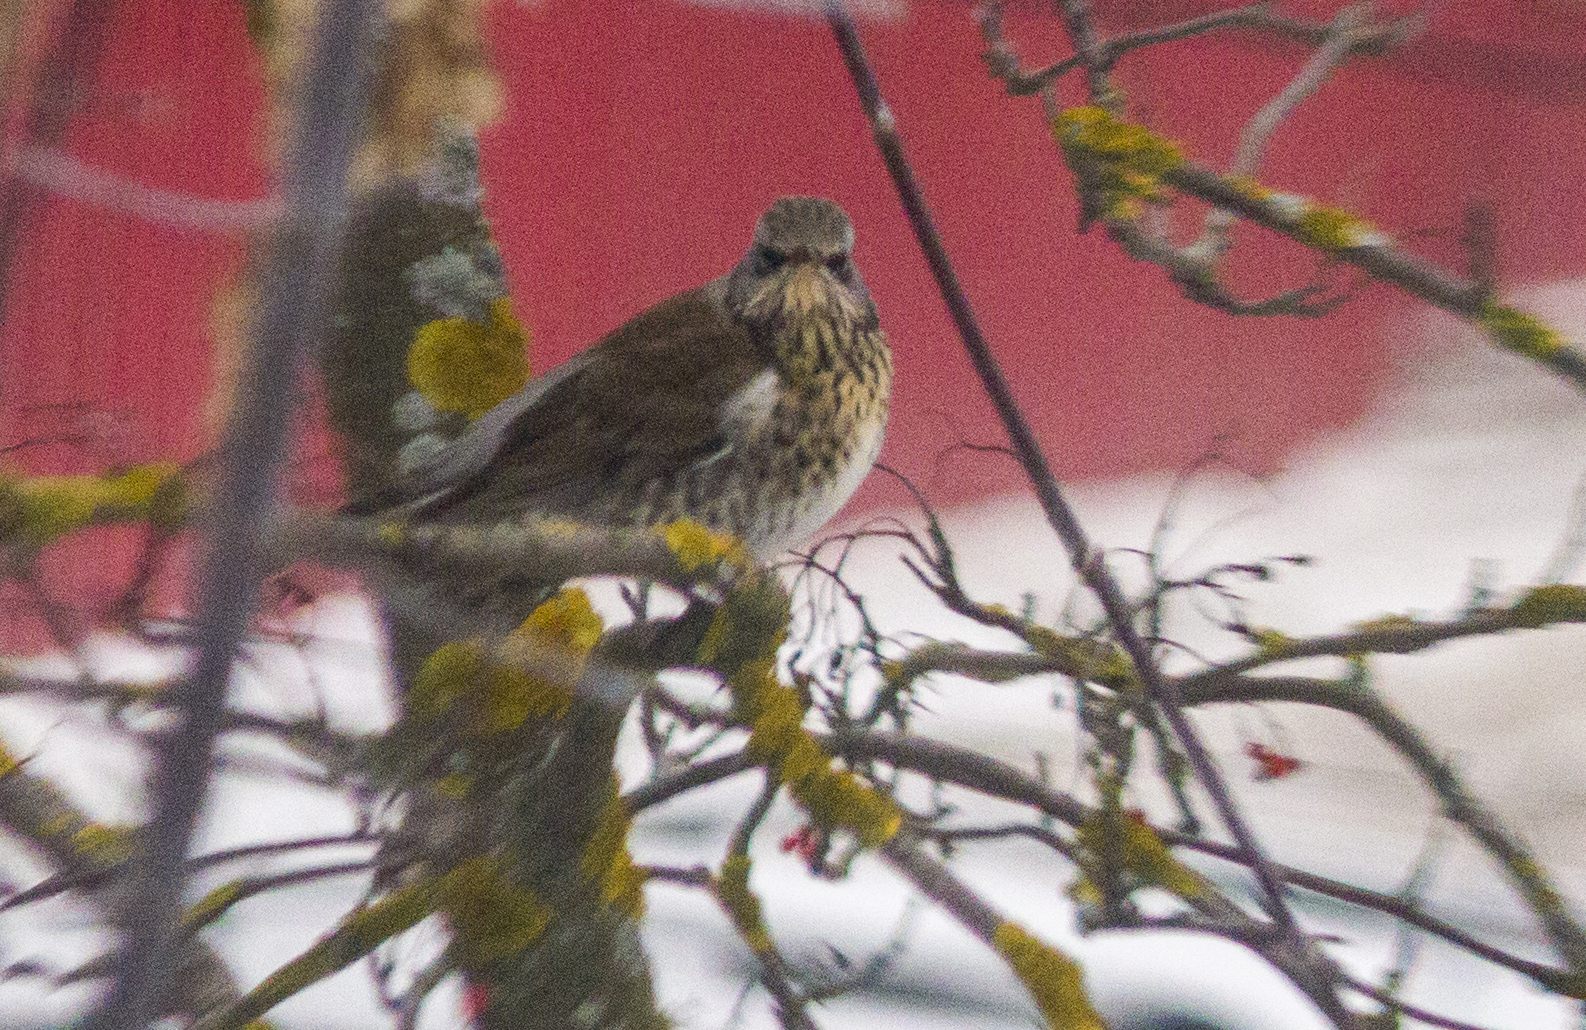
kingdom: Animalia
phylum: Chordata
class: Aves
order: Passeriformes
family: Turdidae
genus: Turdus
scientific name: Turdus pilaris
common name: Fieldfare
